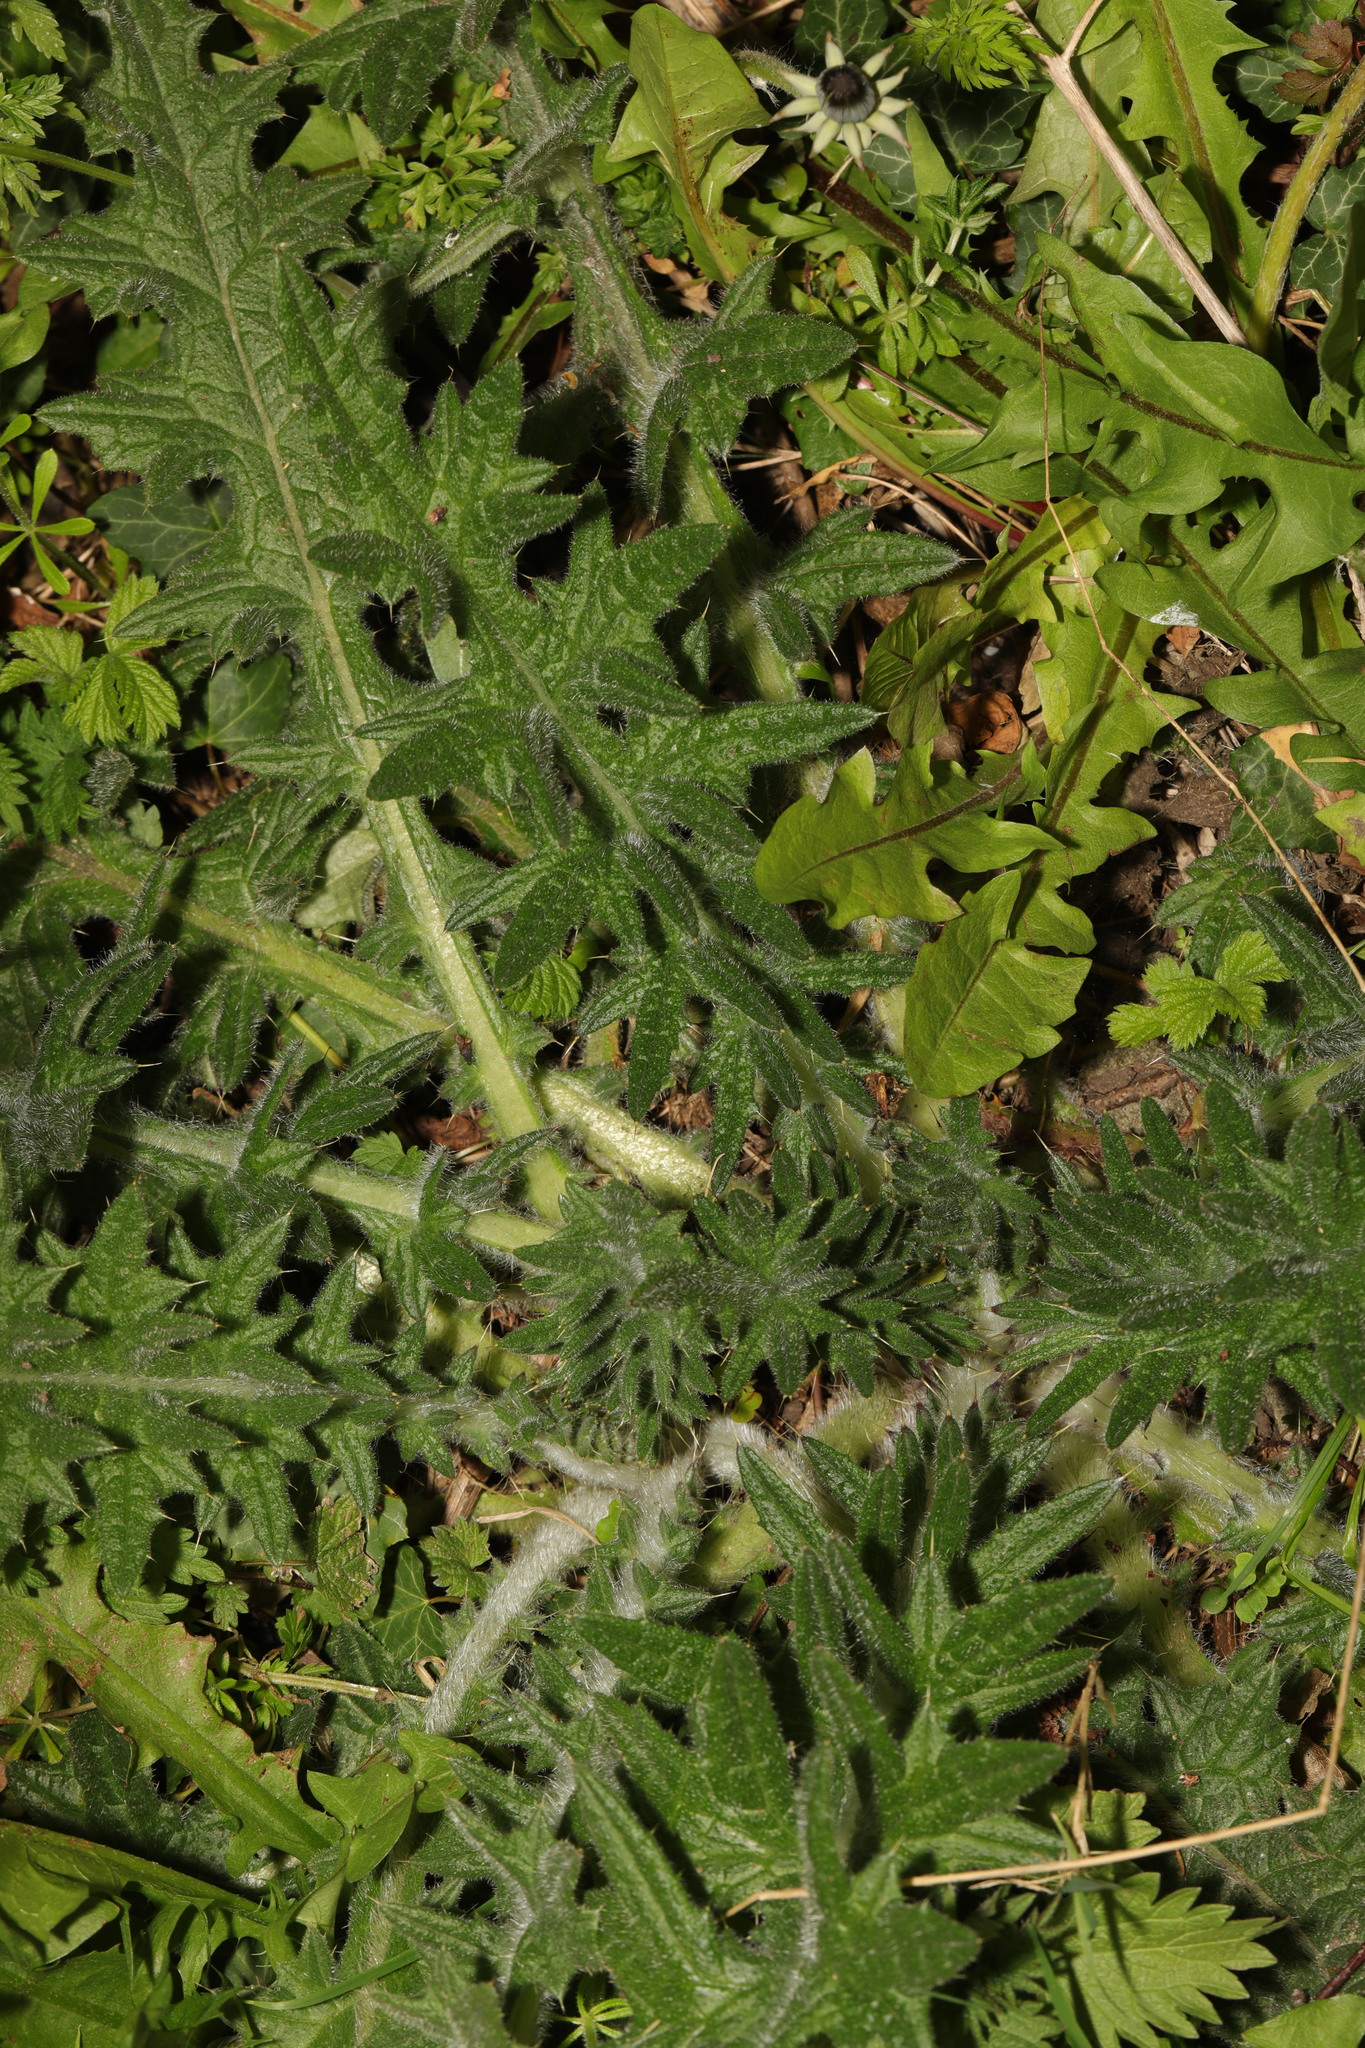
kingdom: Plantae
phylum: Tracheophyta
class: Magnoliopsida
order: Asterales
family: Asteraceae
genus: Cirsium
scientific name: Cirsium vulgare
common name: Bull thistle
